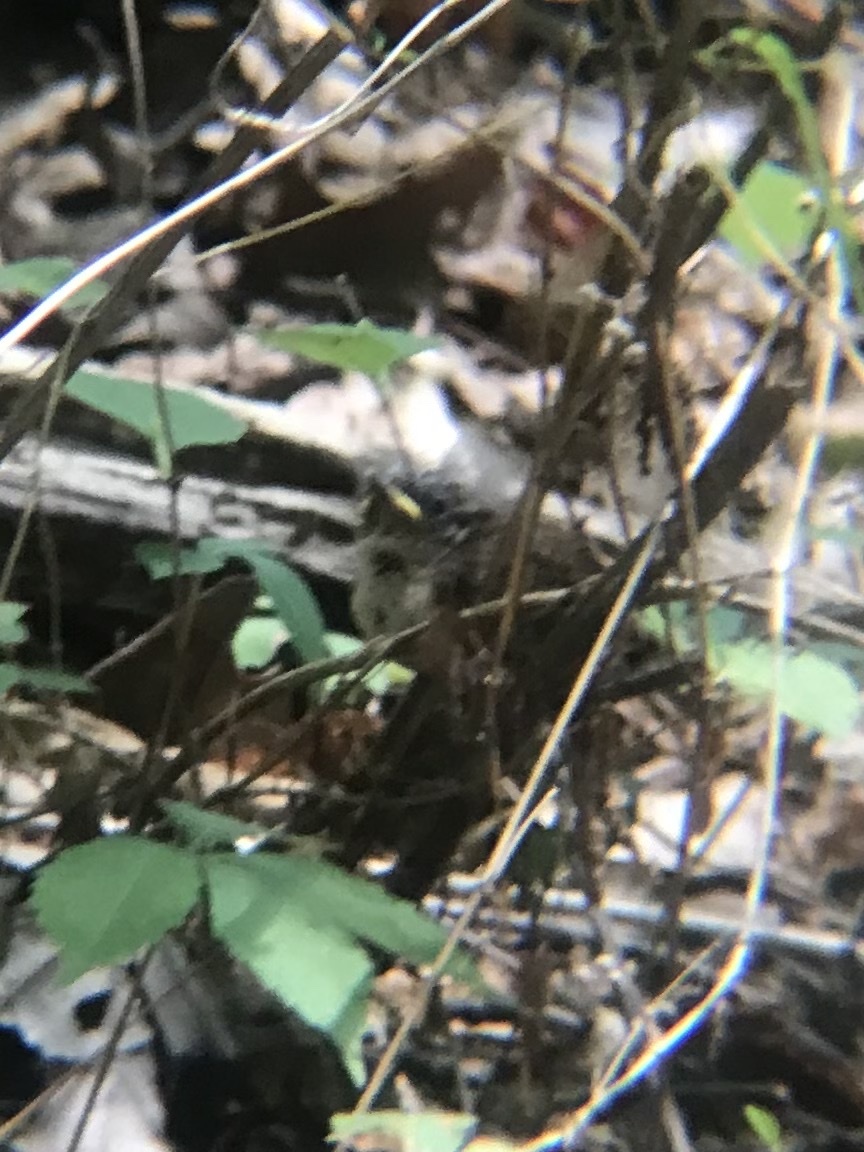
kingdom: Animalia
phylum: Chordata
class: Aves
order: Passeriformes
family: Troglodytidae
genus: Thryothorus
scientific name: Thryothorus ludovicianus
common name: Carolina wren
